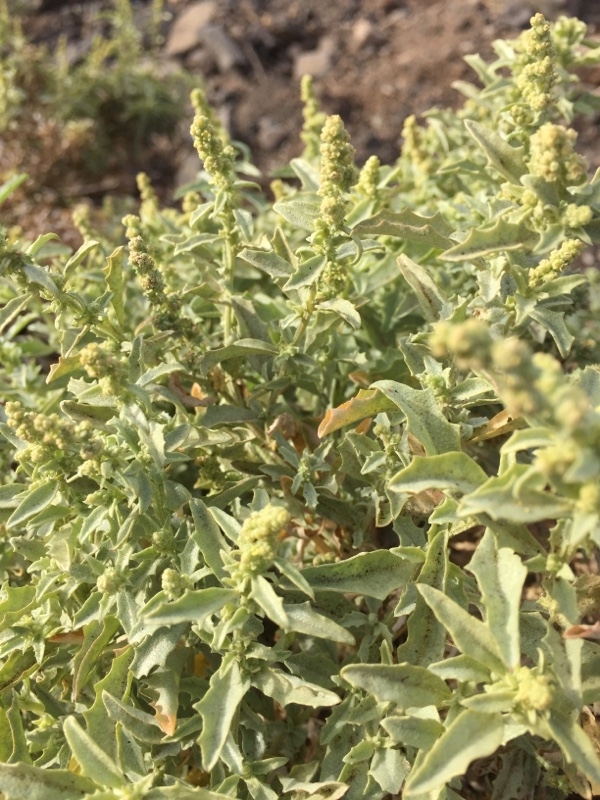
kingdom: Plantae
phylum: Tracheophyta
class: Magnoliopsida
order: Caryophyllales
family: Amaranthaceae
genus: Atriplex
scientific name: Atriplex semilunaris
